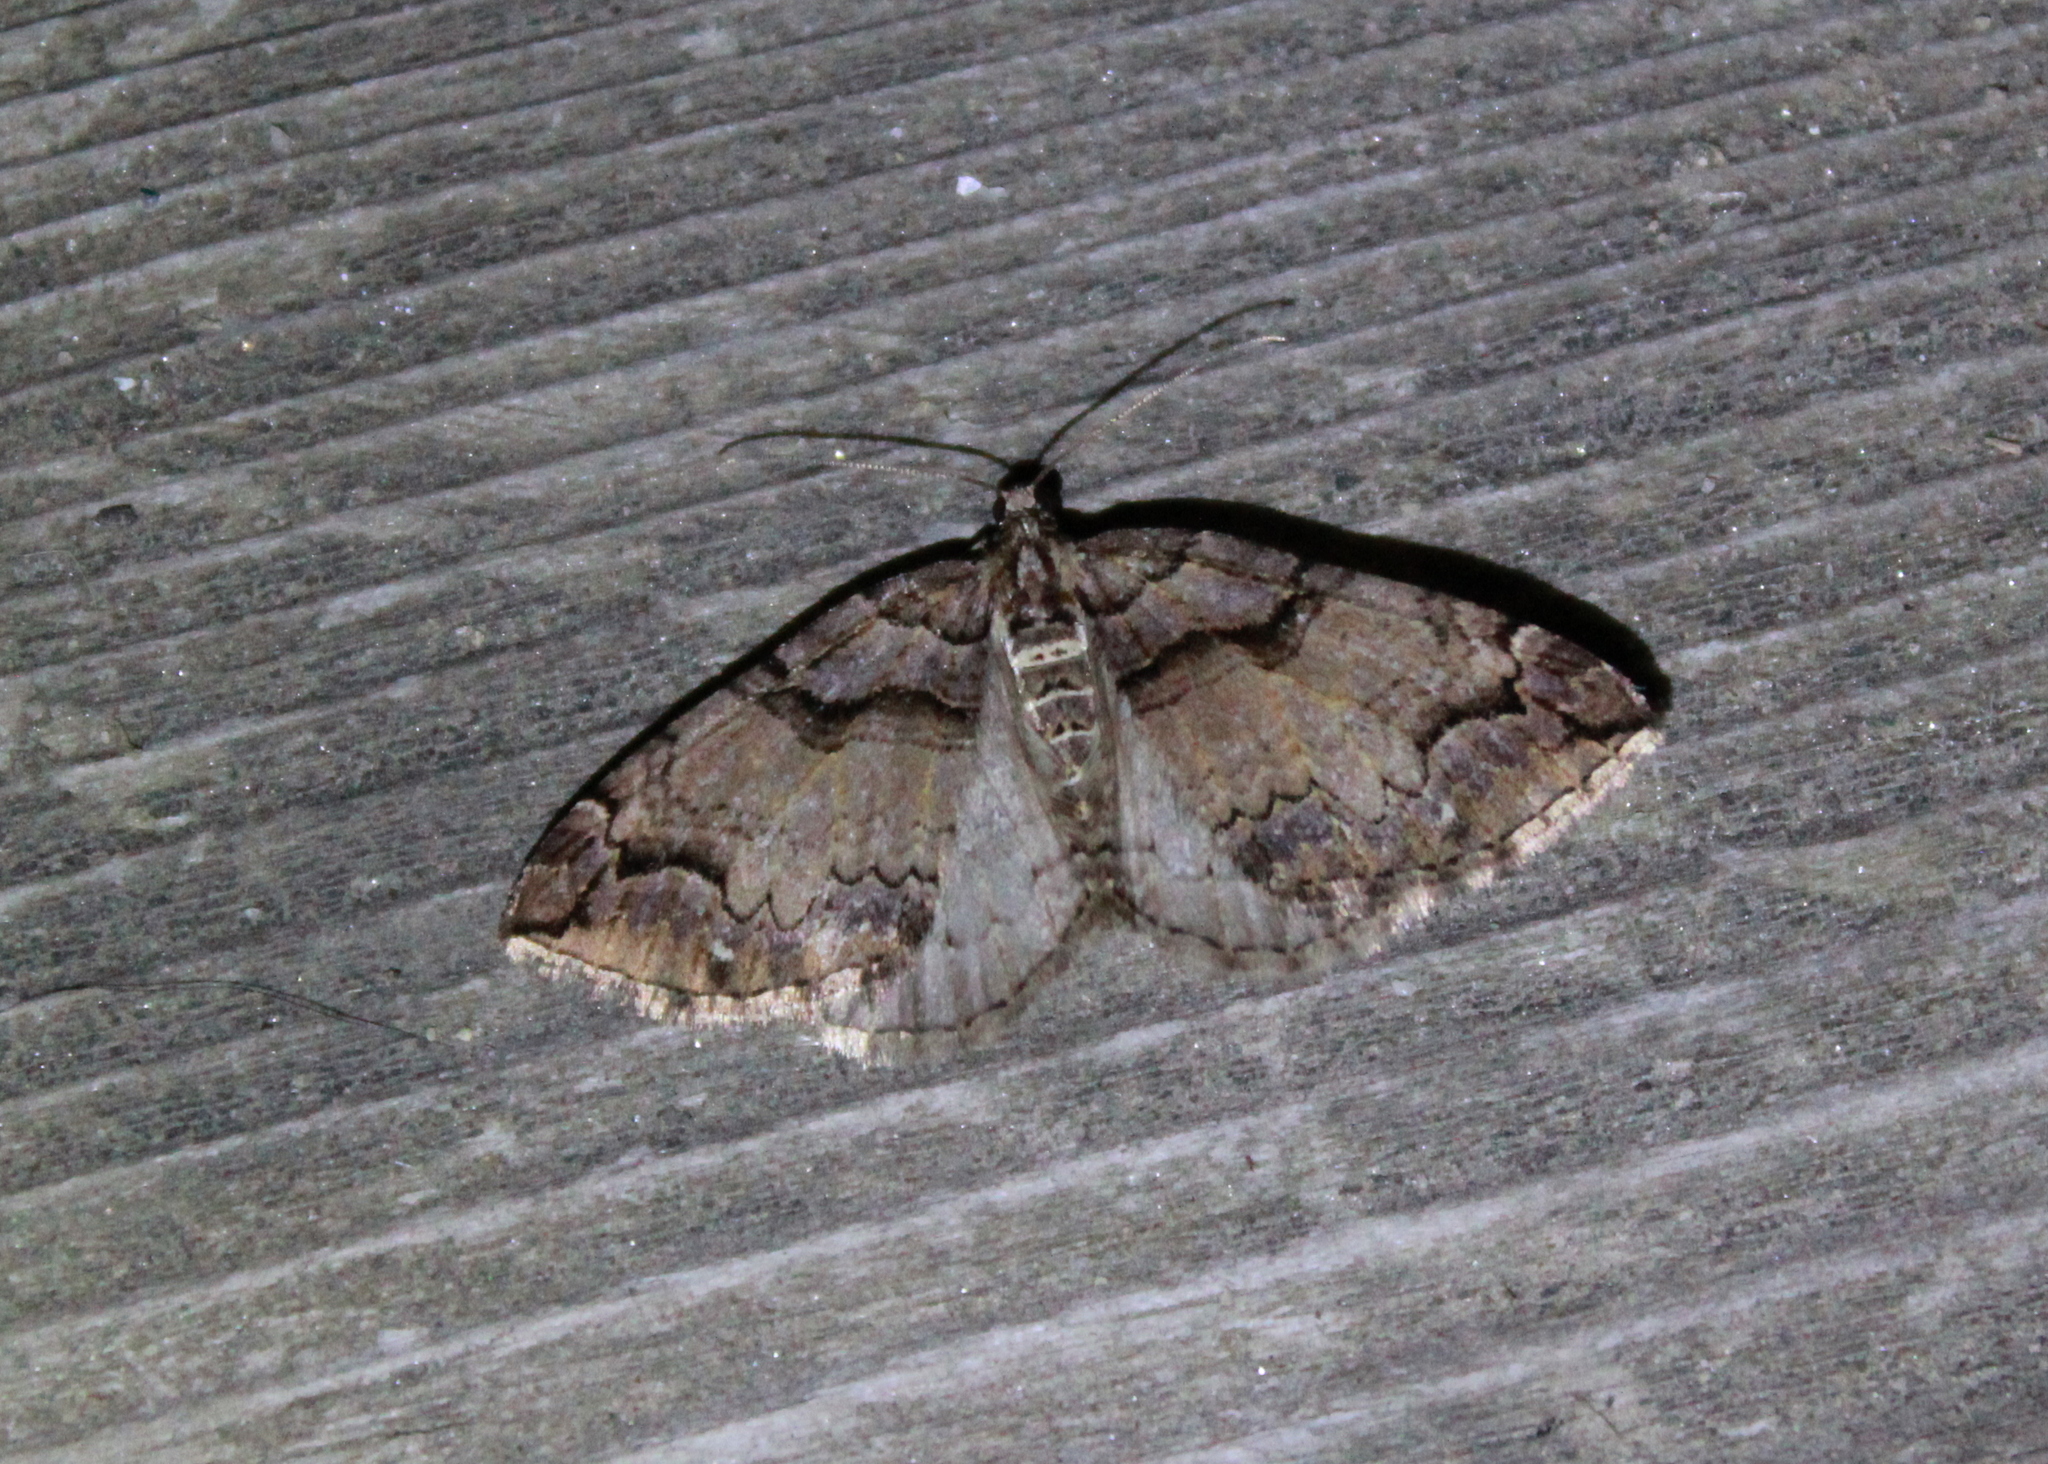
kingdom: Animalia
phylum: Arthropoda
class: Insecta
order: Lepidoptera
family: Geometridae
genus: Anticlea
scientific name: Anticlea vasiliata
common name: Variable carpet
